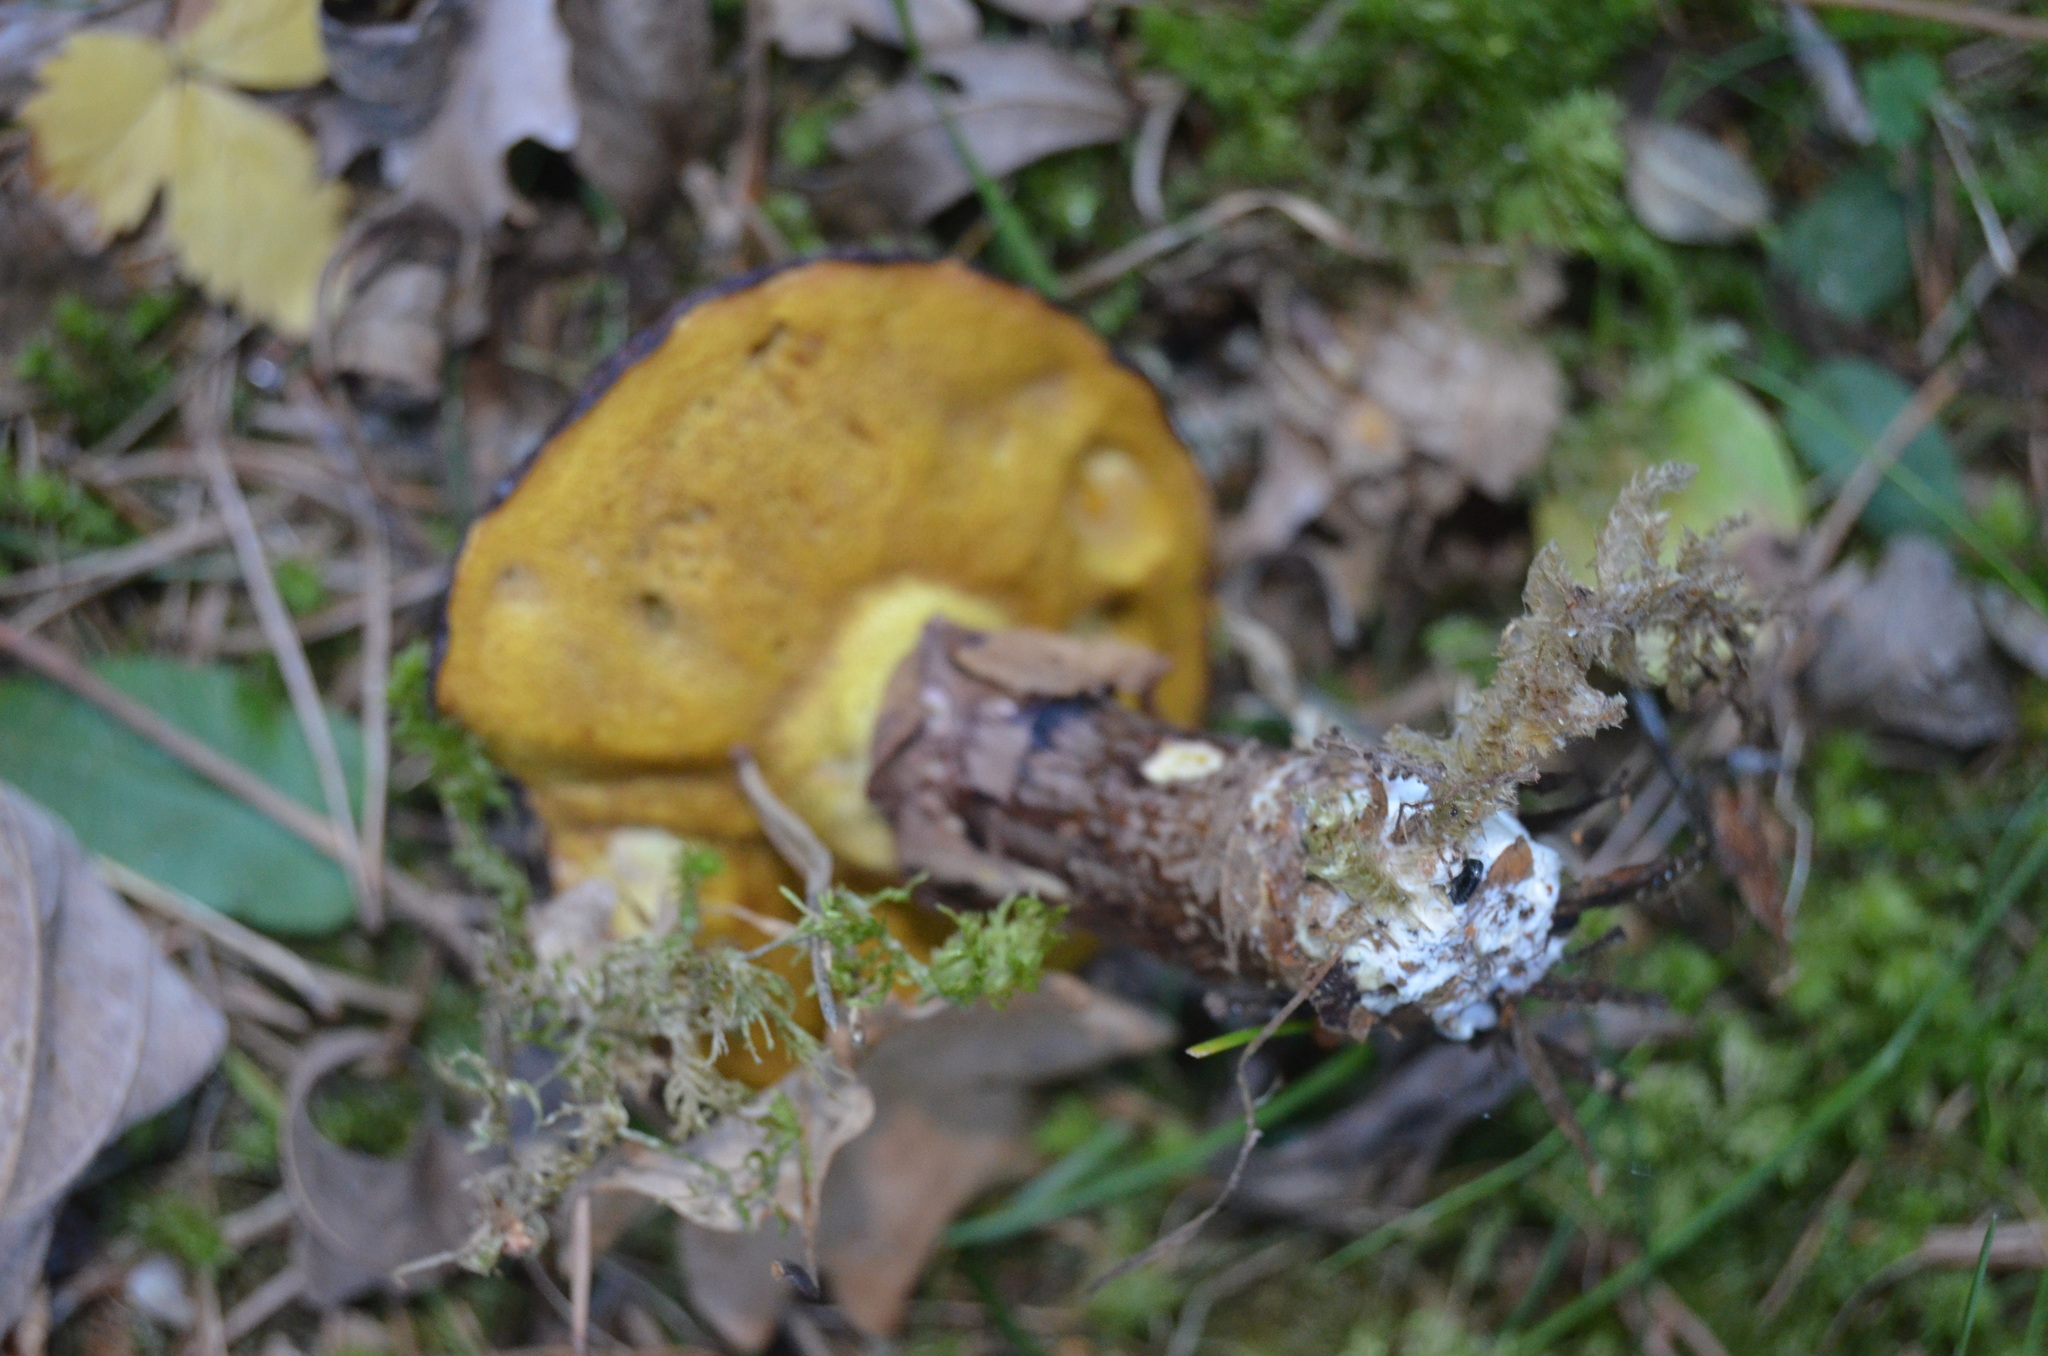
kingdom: Fungi
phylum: Basidiomycota
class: Agaricomycetes
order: Boletales
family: Suillaceae
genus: Suillus
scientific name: Suillus luteus
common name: Slippery jack
